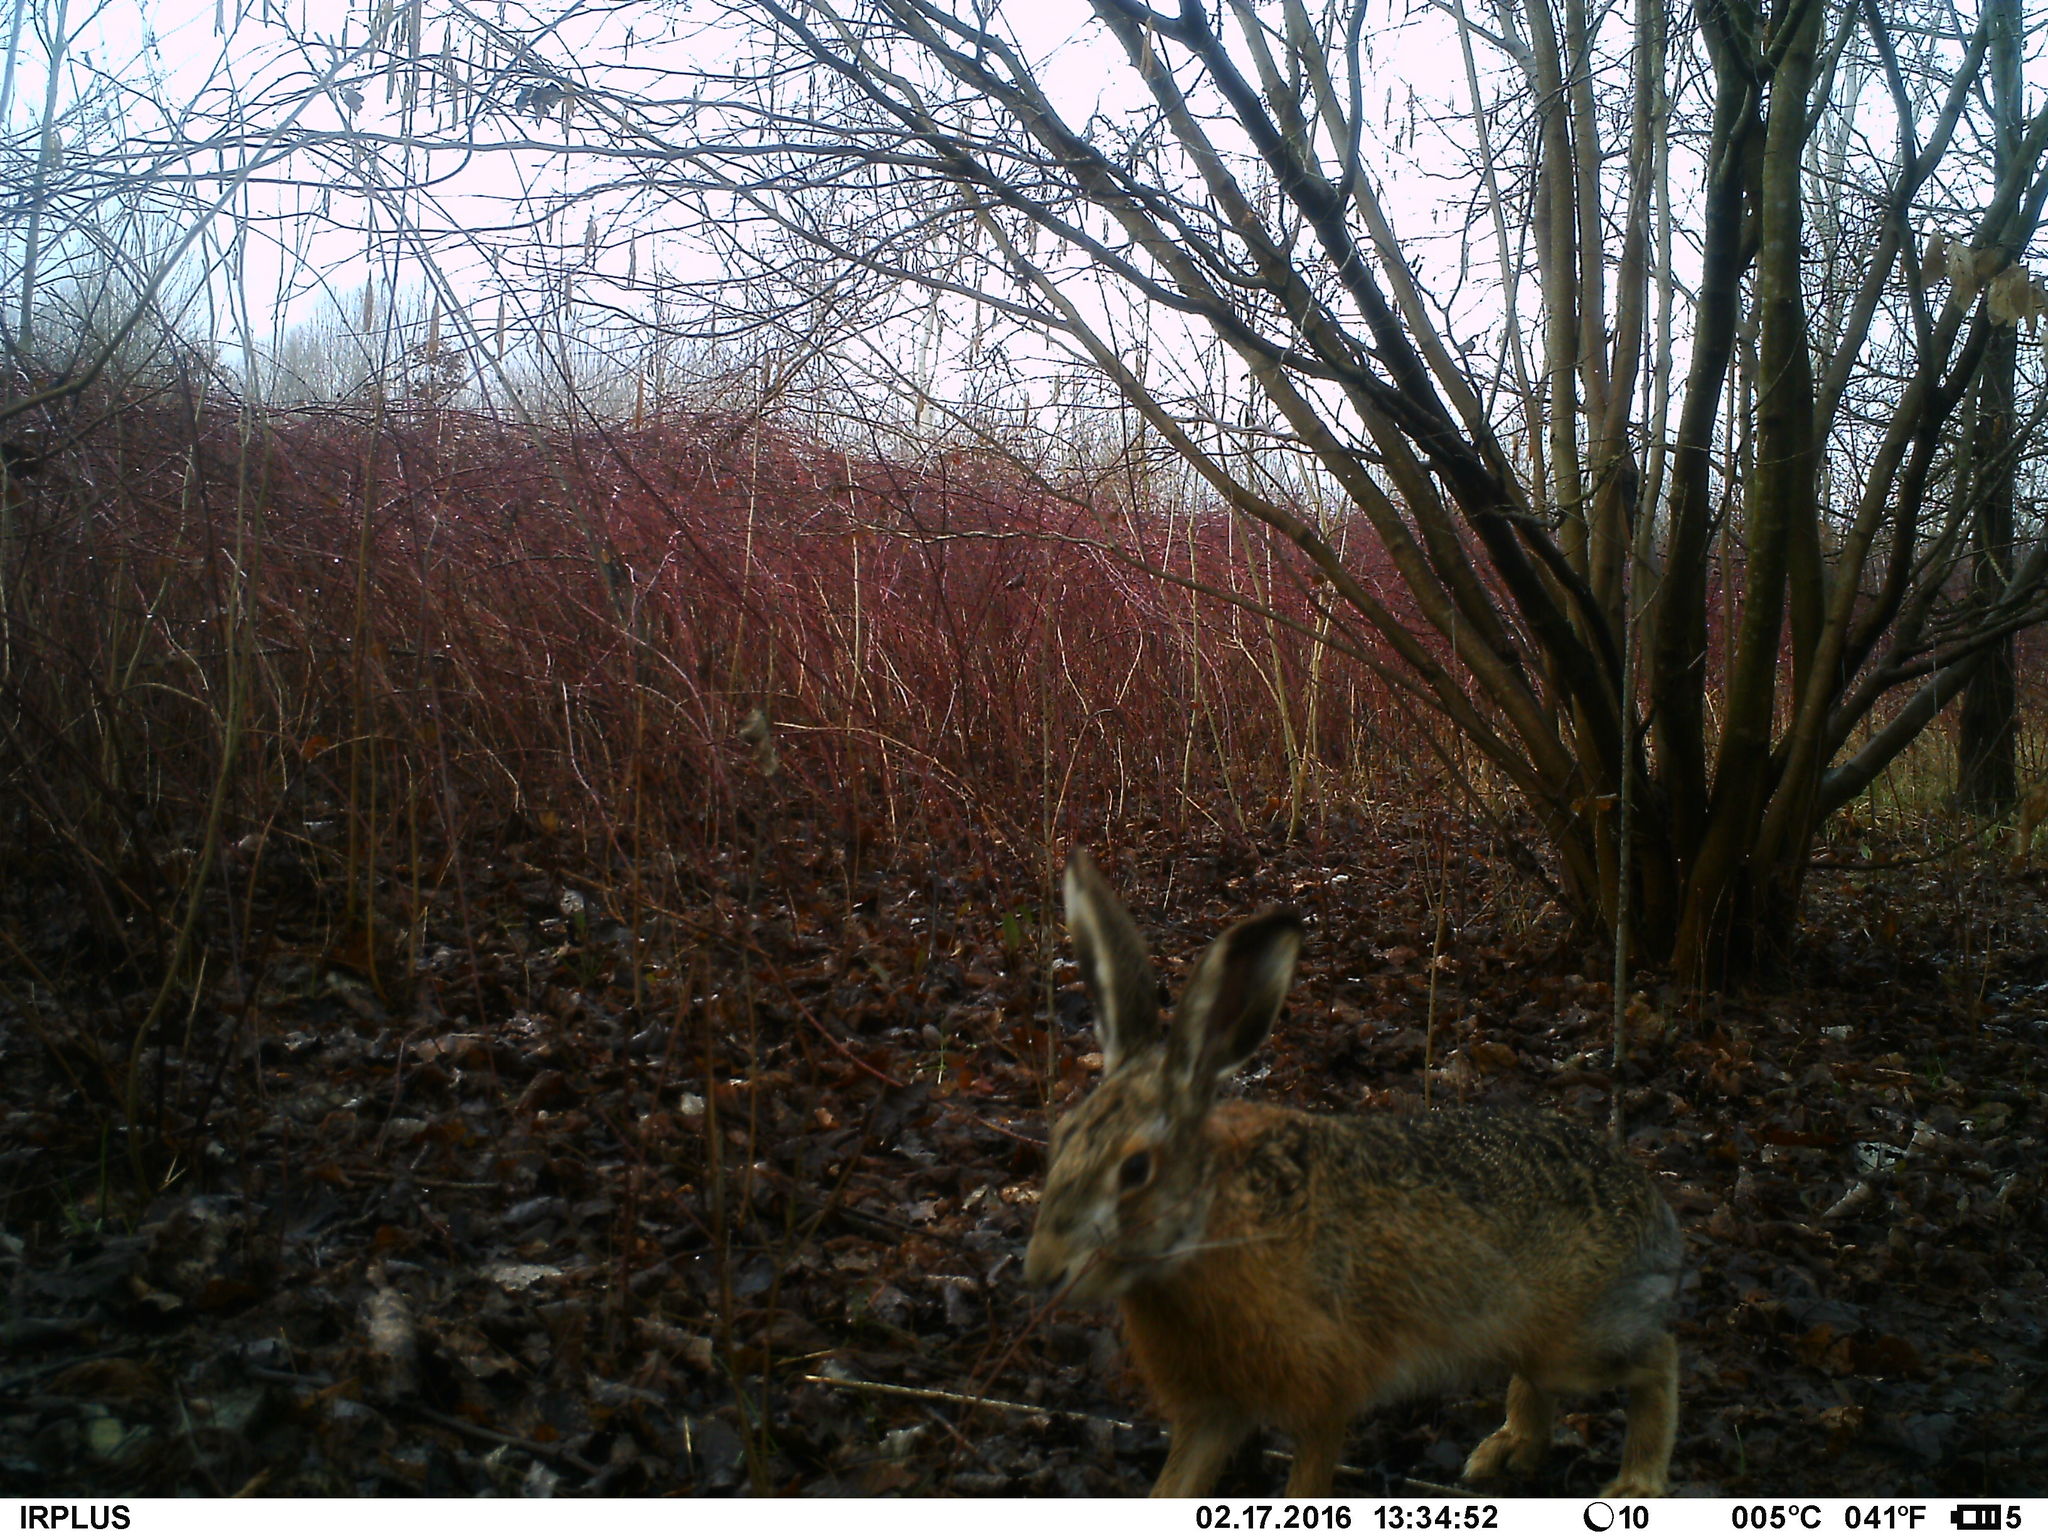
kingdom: Animalia
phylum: Chordata
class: Mammalia
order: Lagomorpha
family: Leporidae
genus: Lepus
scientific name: Lepus europaeus
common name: European hare
